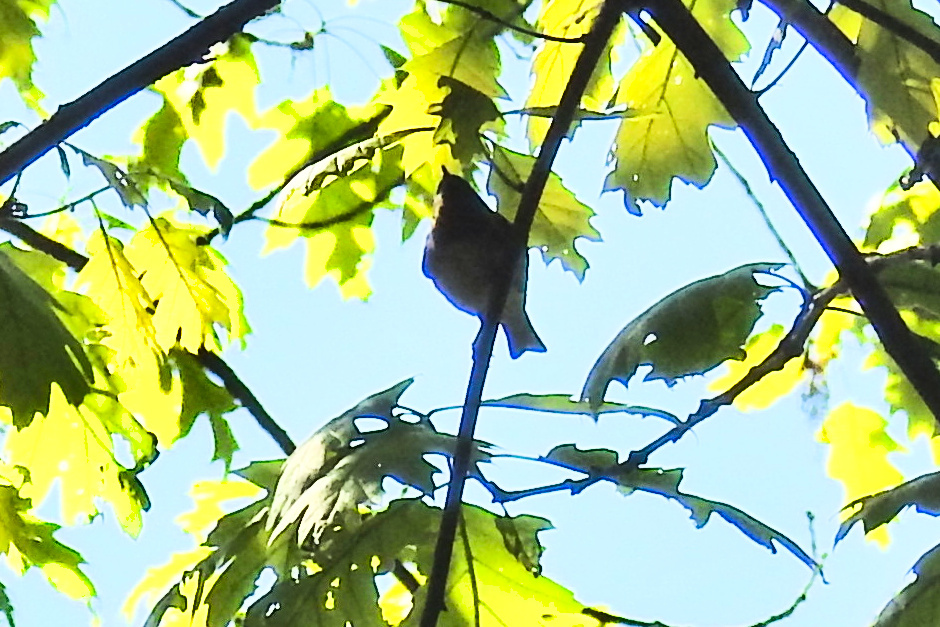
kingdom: Animalia
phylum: Chordata
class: Aves
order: Passeriformes
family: Parulidae
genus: Setophaga
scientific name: Setophaga castanea
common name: Bay-breasted warbler
